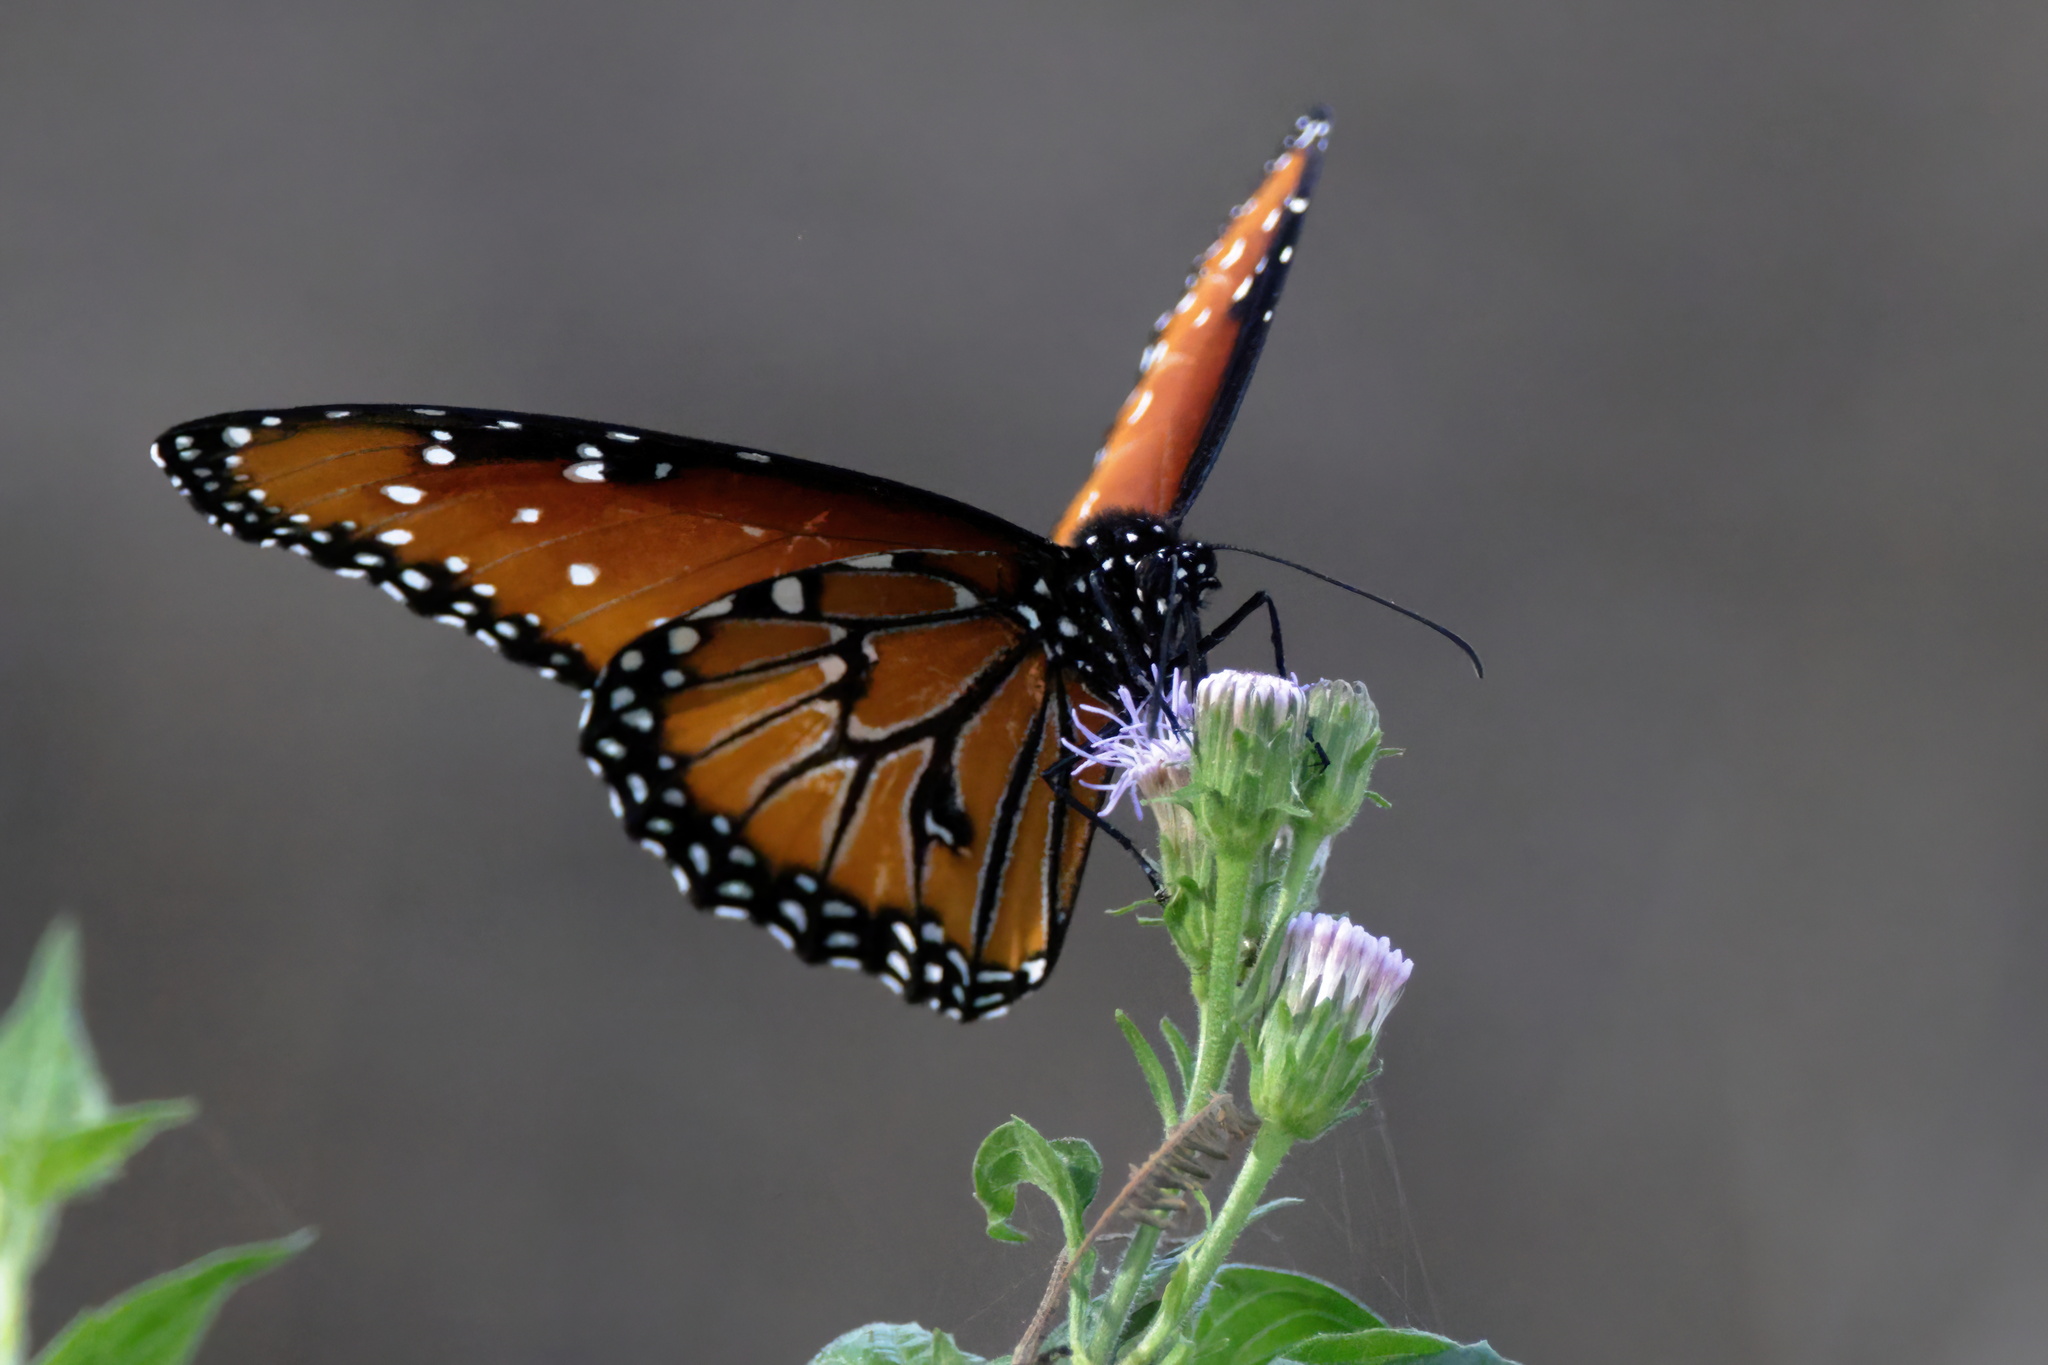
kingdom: Animalia
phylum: Arthropoda
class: Insecta
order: Lepidoptera
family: Nymphalidae
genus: Danaus
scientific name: Danaus gilippus
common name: Queen
